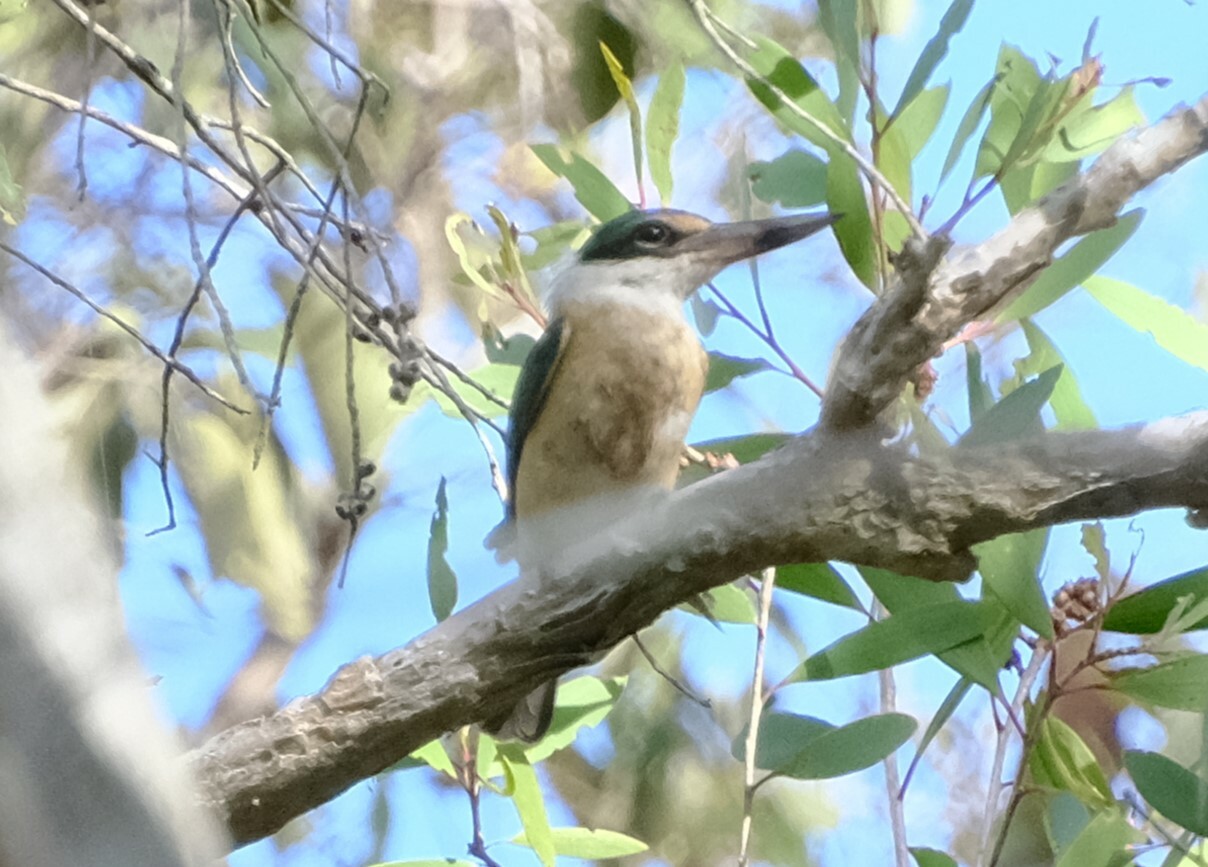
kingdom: Animalia
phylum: Chordata
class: Aves
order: Coraciiformes
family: Alcedinidae
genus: Todiramphus
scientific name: Todiramphus sanctus
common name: Sacred kingfisher
